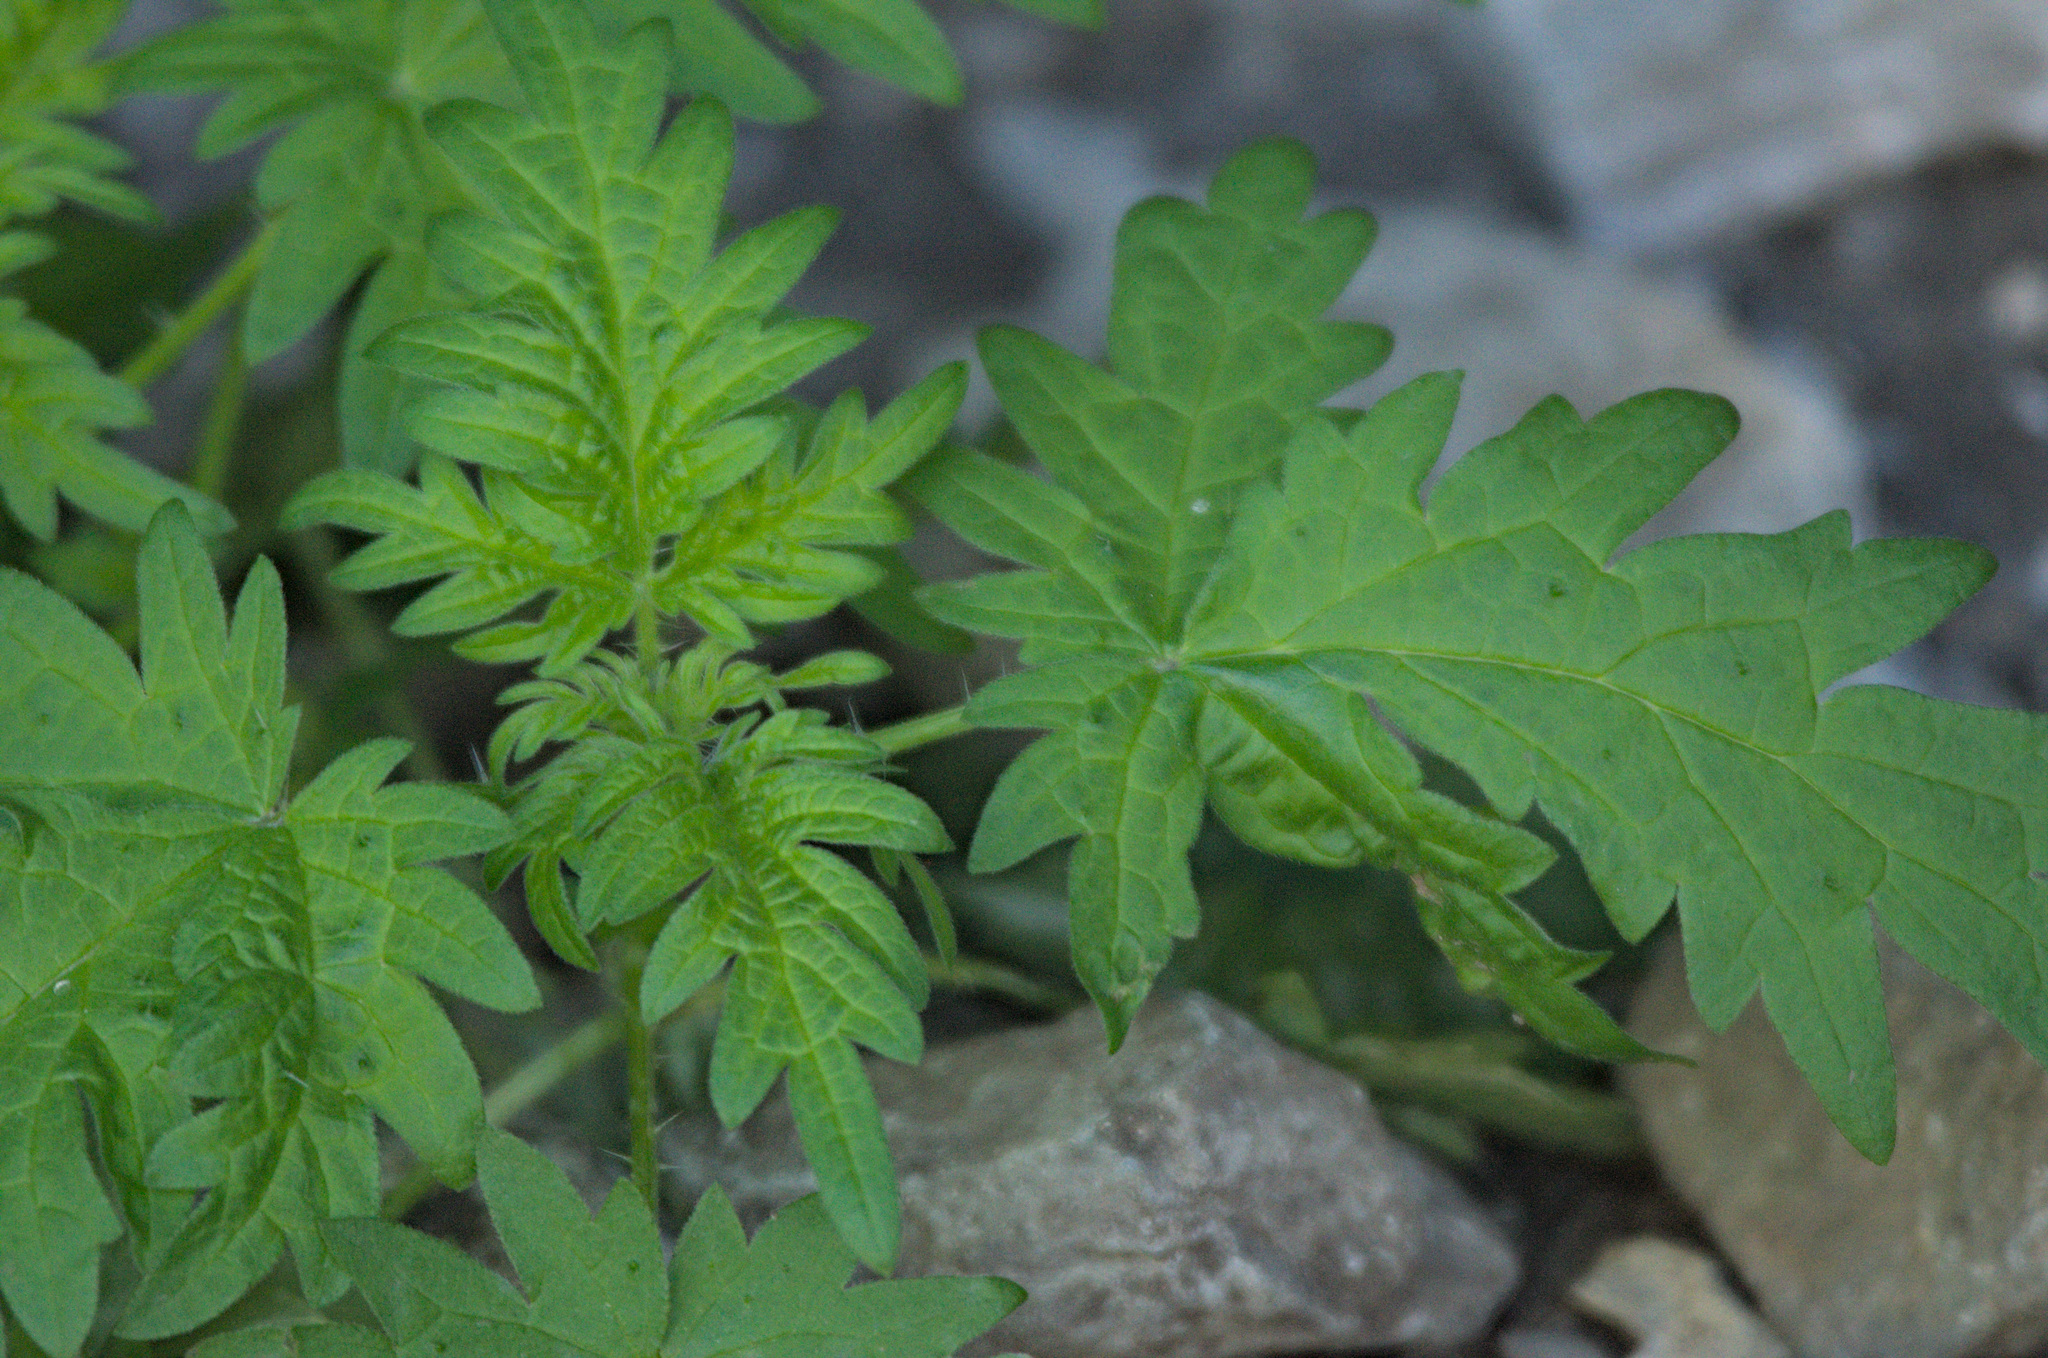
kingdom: Plantae
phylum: Tracheophyta
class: Magnoliopsida
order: Rosales
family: Urticaceae
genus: Urtica
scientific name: Urtica cannabina
